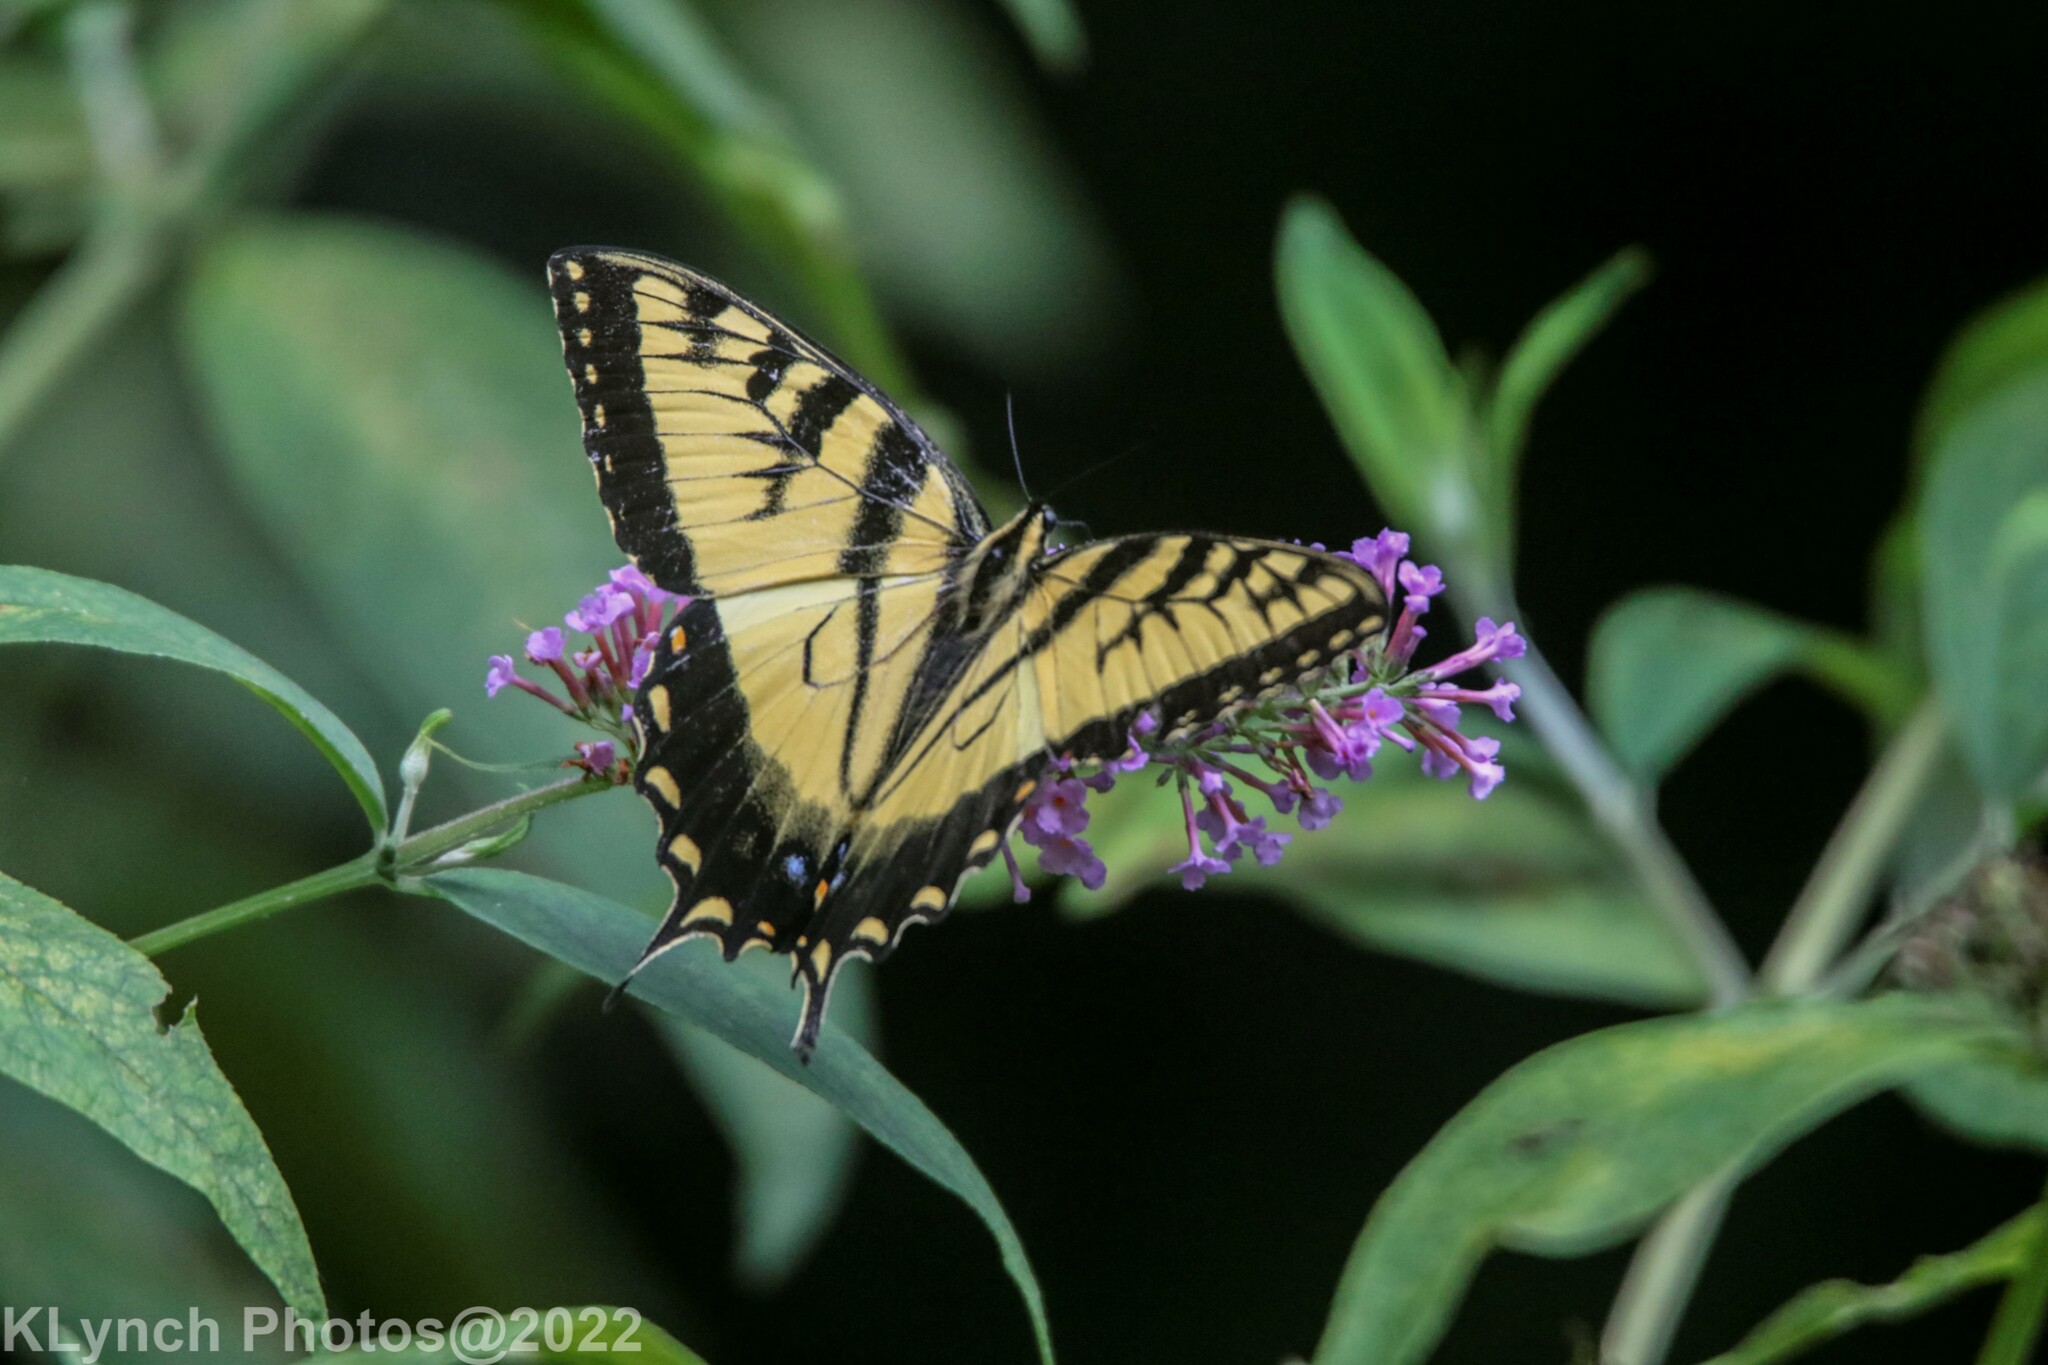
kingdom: Animalia
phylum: Arthropoda
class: Insecta
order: Lepidoptera
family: Papilionidae
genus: Papilio
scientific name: Papilio glaucus
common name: Tiger swallowtail
